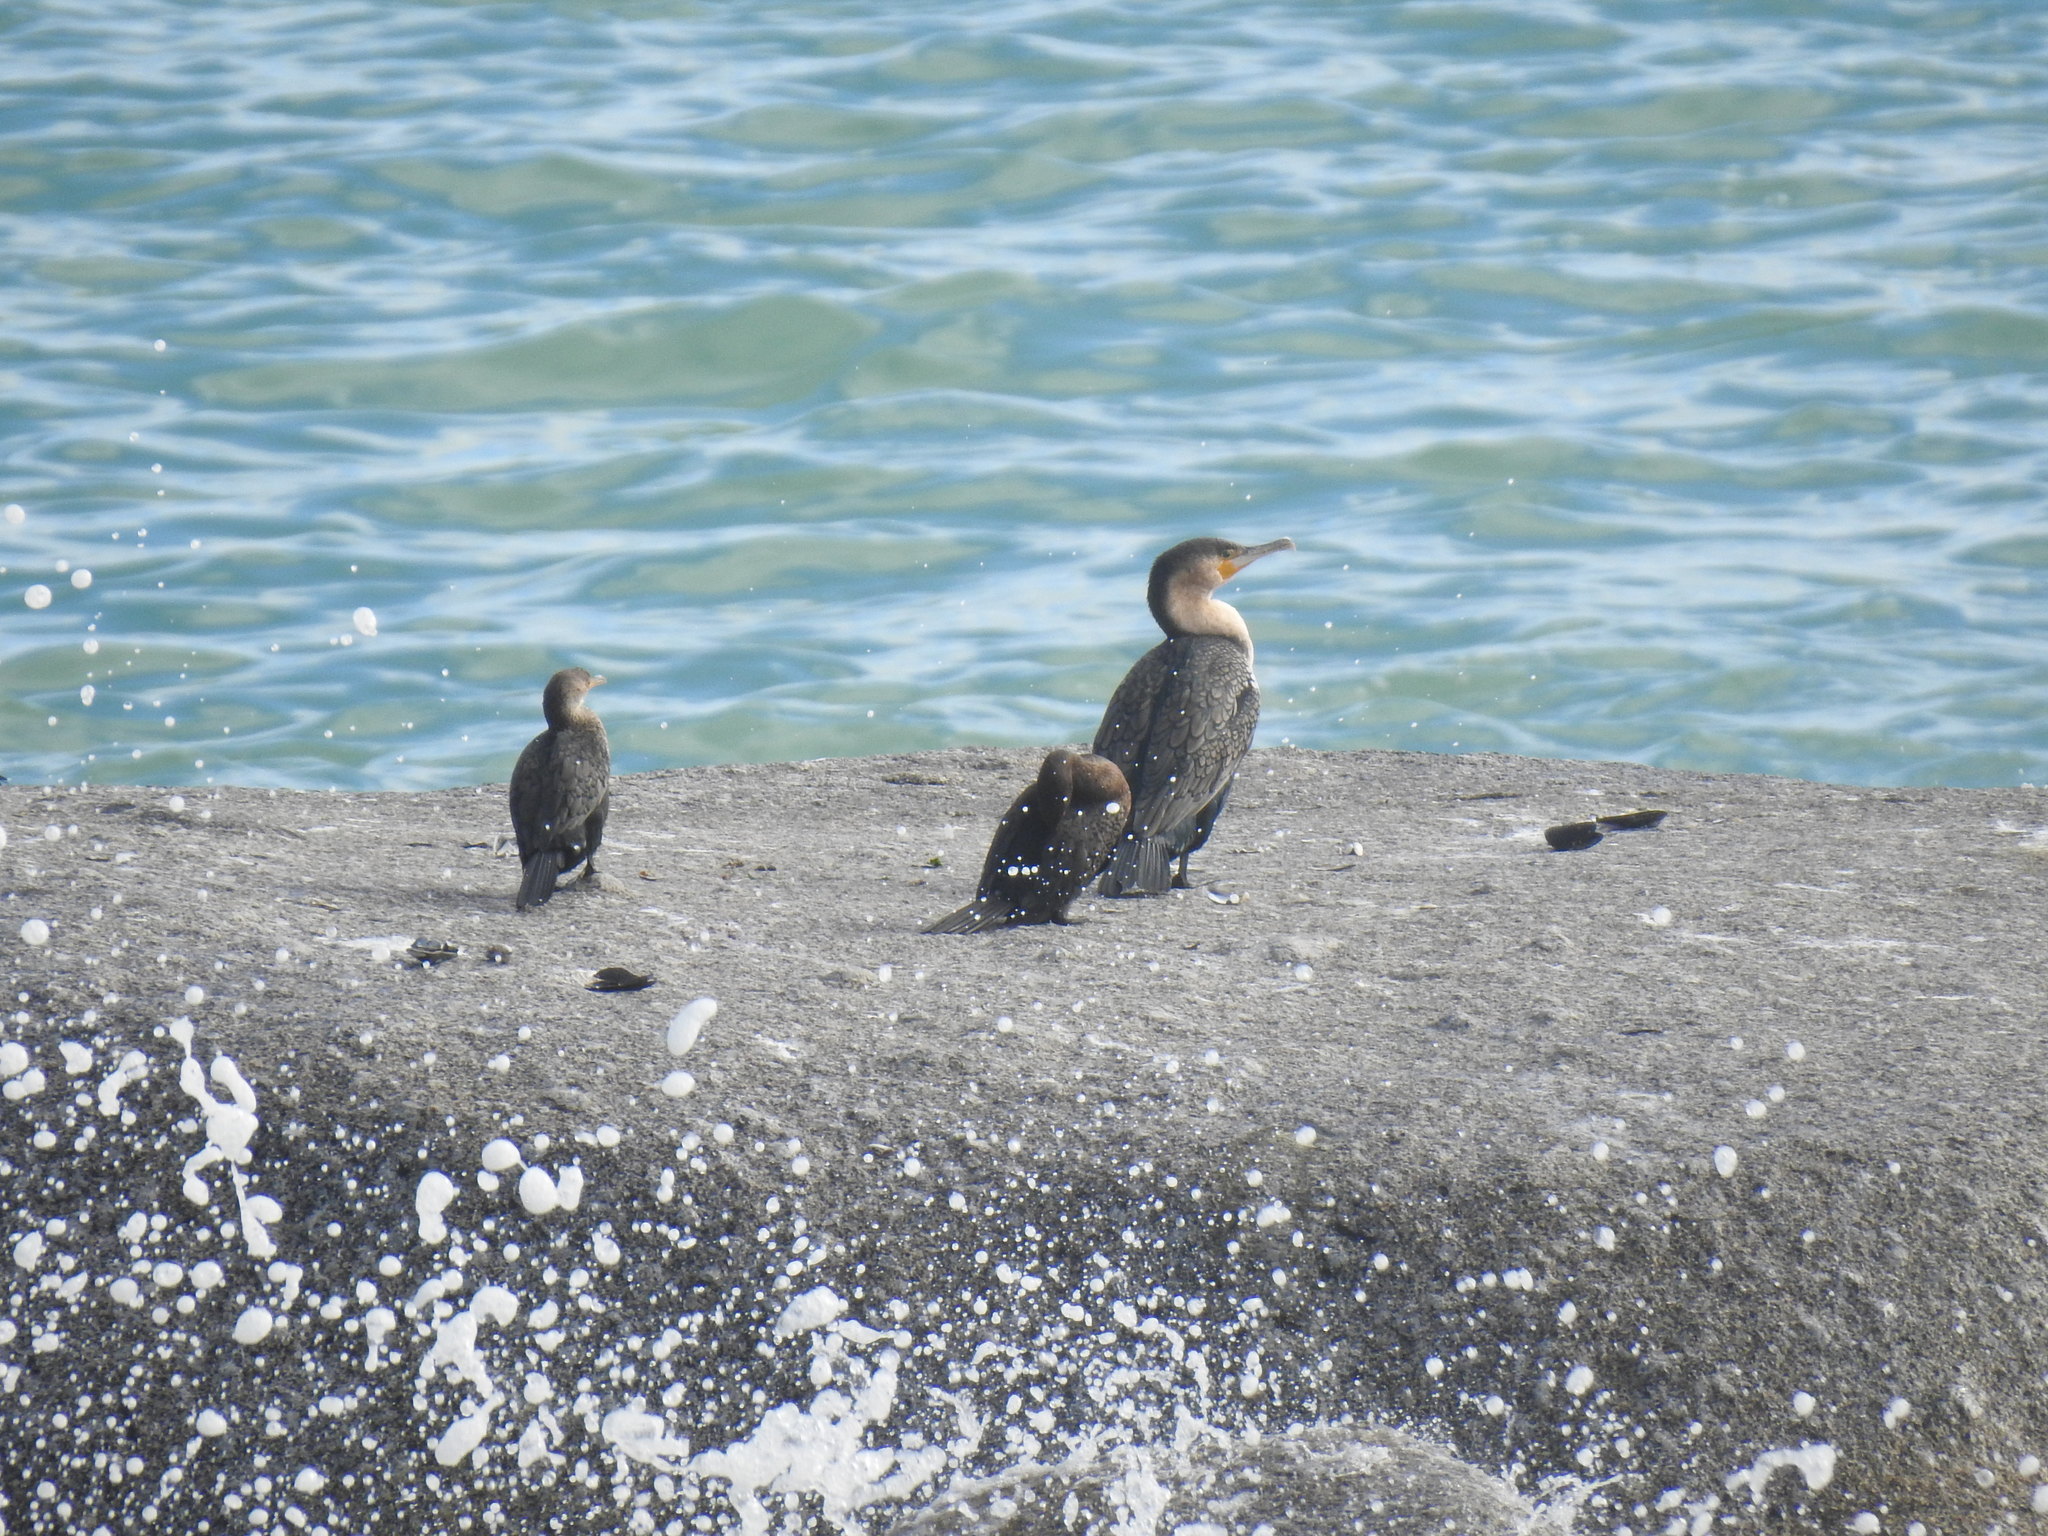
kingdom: Animalia
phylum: Chordata
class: Aves
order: Suliformes
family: Phalacrocoracidae
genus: Phalacrocorax
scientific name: Phalacrocorax carbo
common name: Great cormorant
